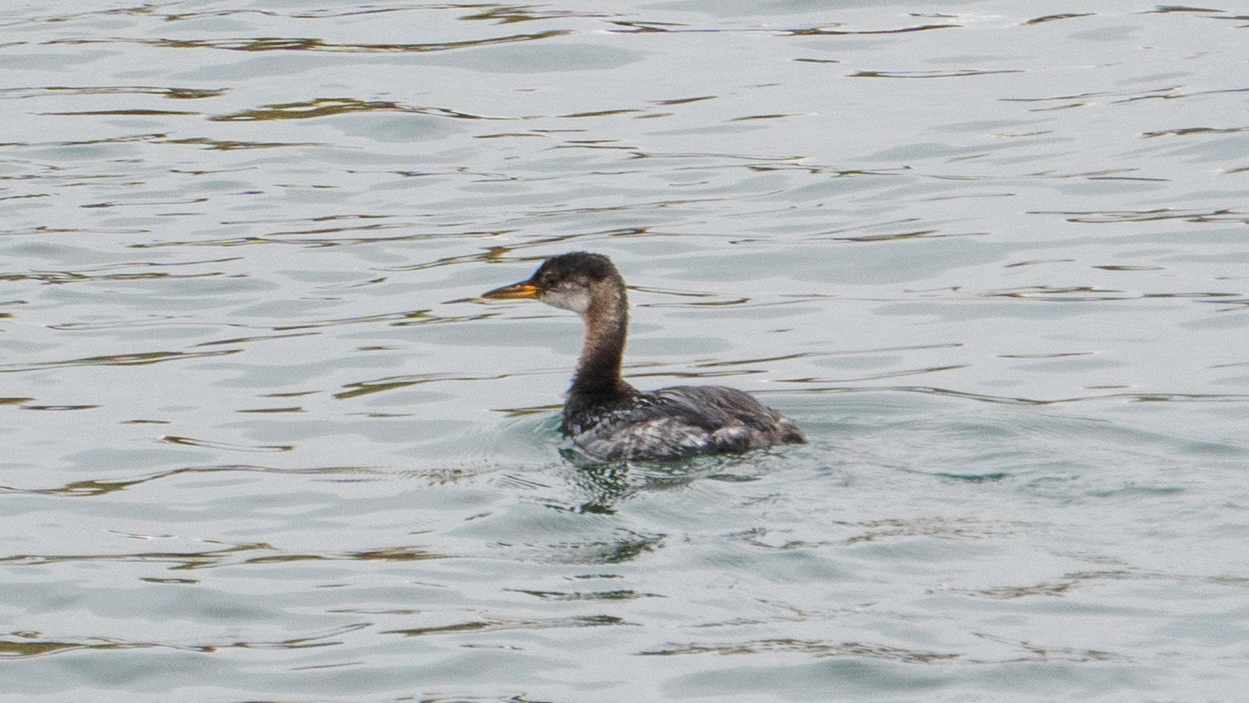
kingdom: Animalia
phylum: Chordata
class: Aves
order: Podicipediformes
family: Podicipedidae
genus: Podiceps
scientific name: Podiceps grisegena
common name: Red-necked grebe
